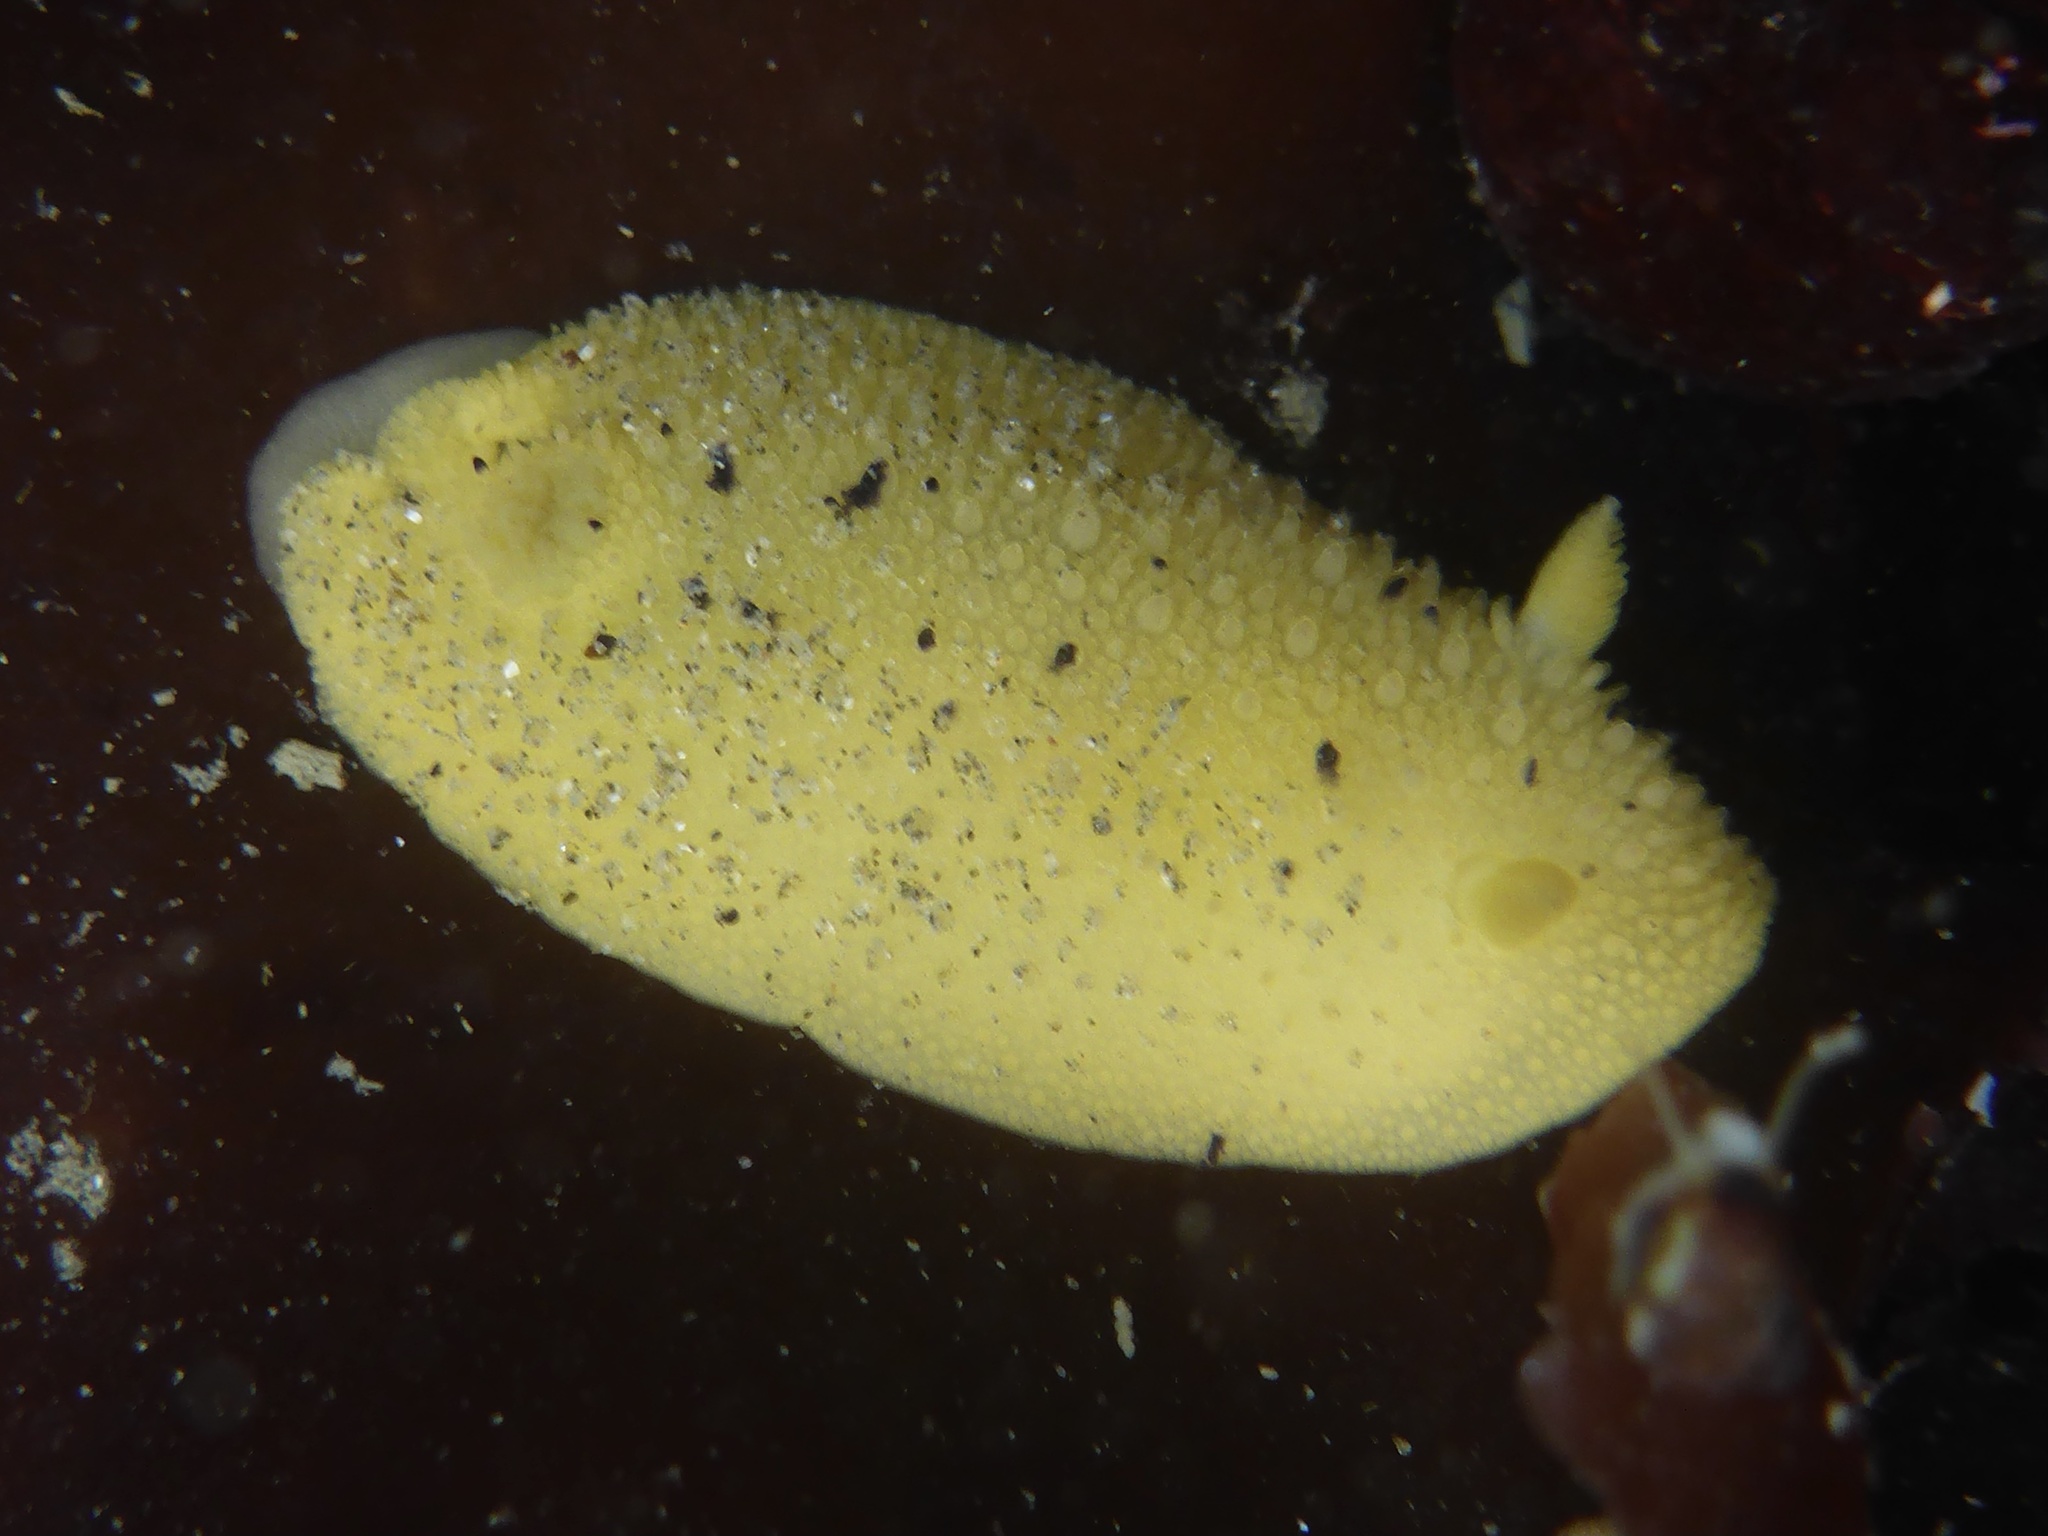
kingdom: Animalia
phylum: Mollusca
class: Gastropoda
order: Nudibranchia
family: Dorididae
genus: Doris
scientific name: Doris montereyensis
